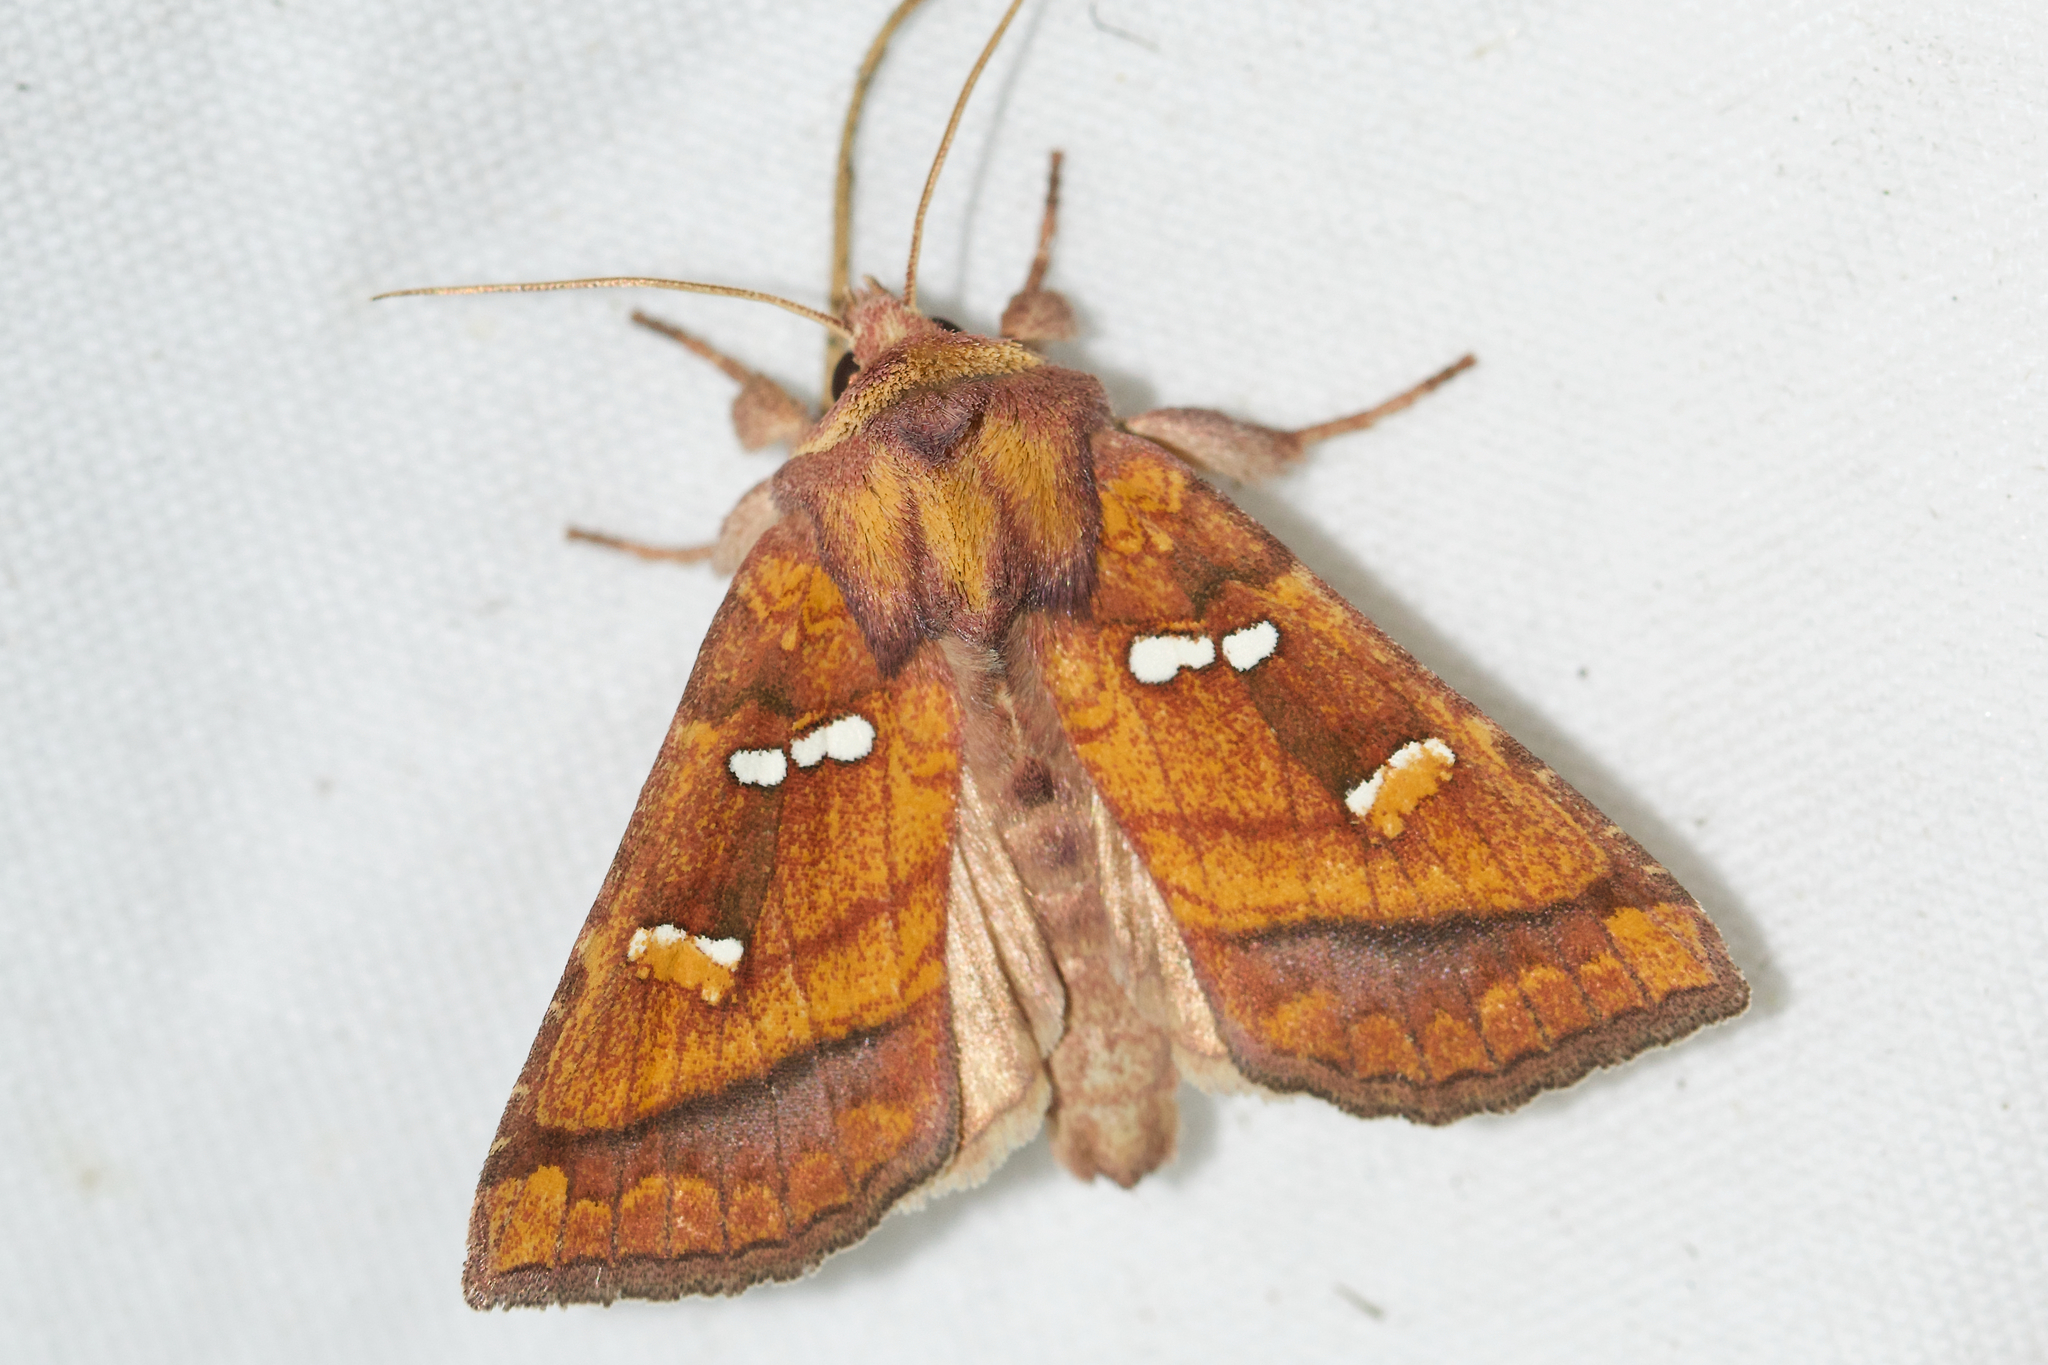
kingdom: Animalia
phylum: Arthropoda
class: Insecta
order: Lepidoptera
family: Noctuidae
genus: Papaipema
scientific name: Papaipema pterisii
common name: Bracken borer moth
